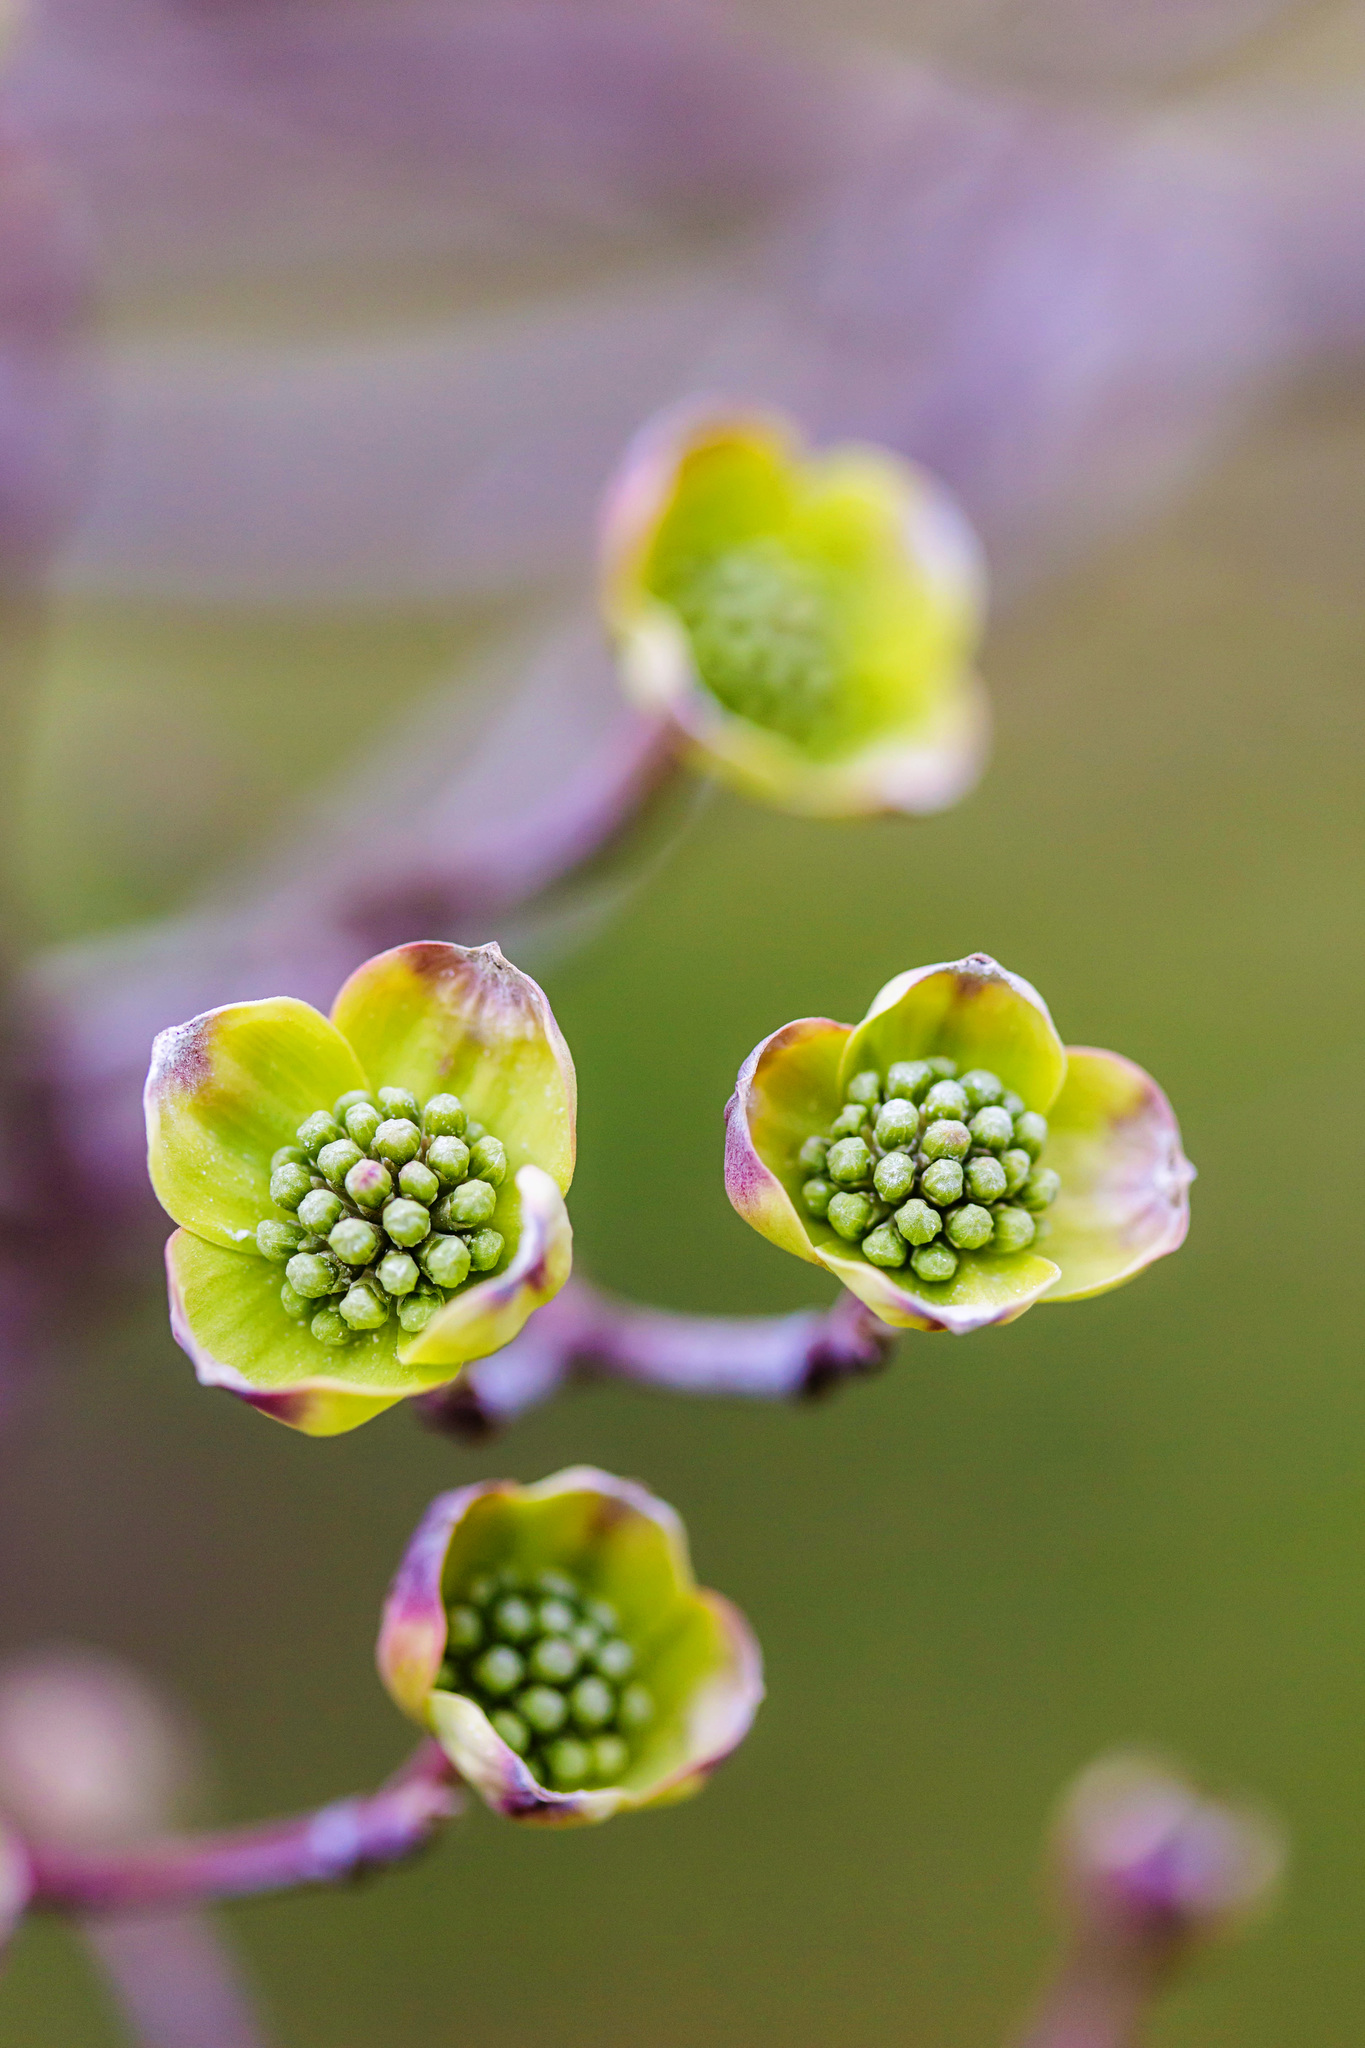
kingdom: Plantae
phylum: Tracheophyta
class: Magnoliopsida
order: Cornales
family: Cornaceae
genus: Cornus
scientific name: Cornus florida
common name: Flowering dogwood
